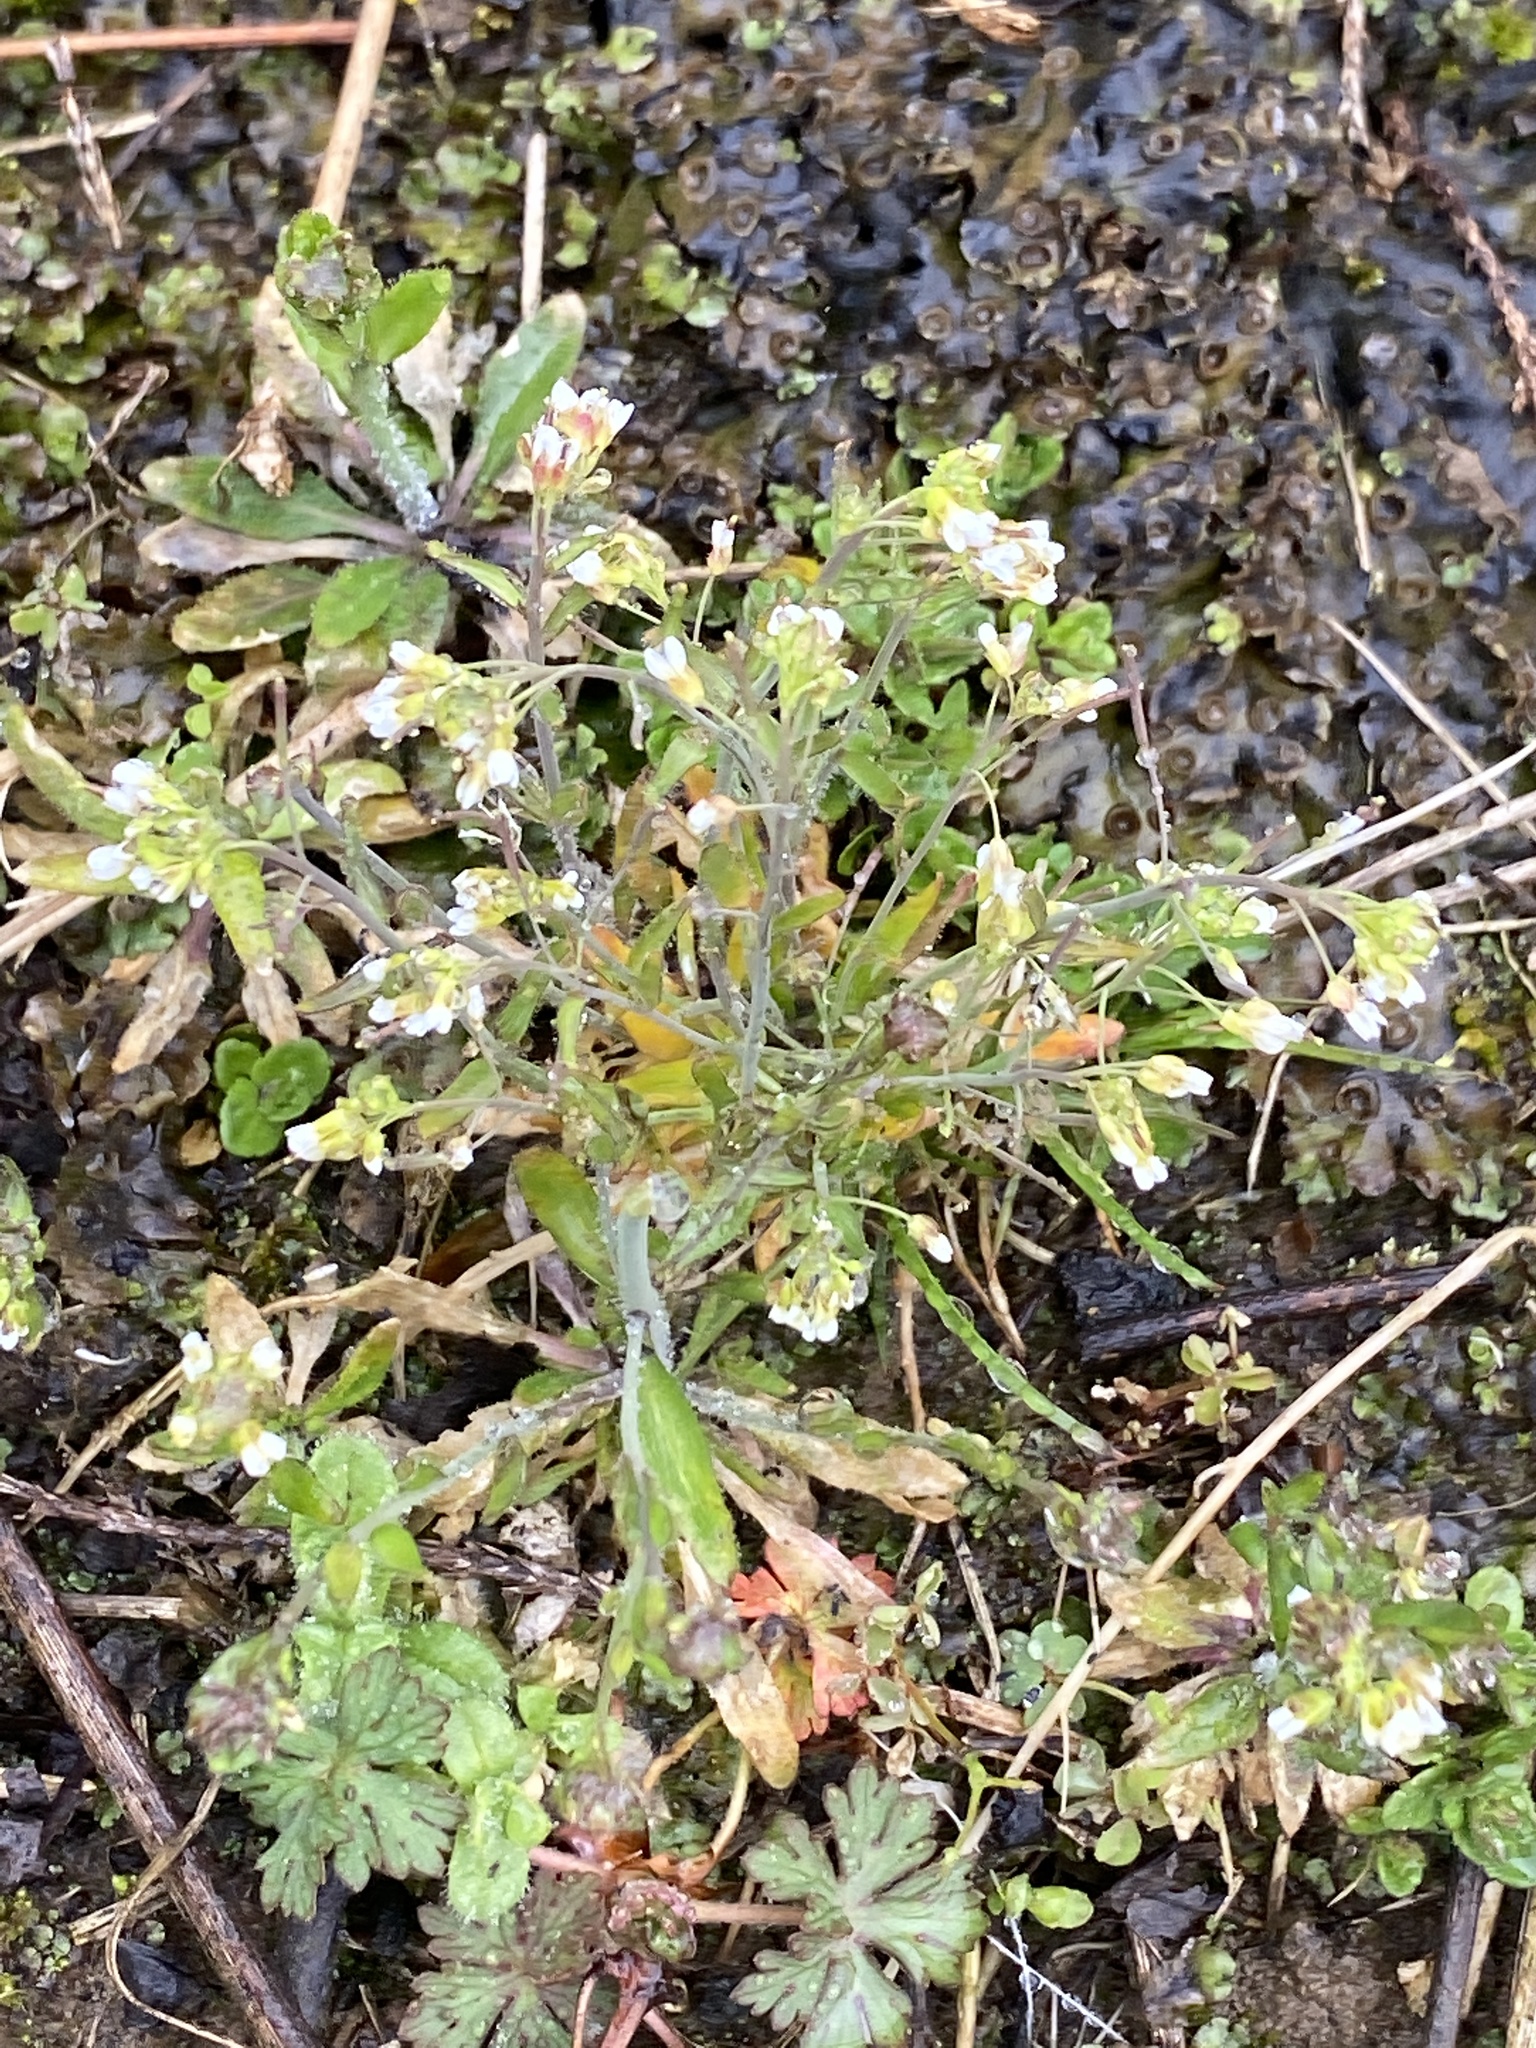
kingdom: Plantae
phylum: Tracheophyta
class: Magnoliopsida
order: Brassicales
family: Brassicaceae
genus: Arabidopsis
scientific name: Arabidopsis thaliana
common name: Thale cress
